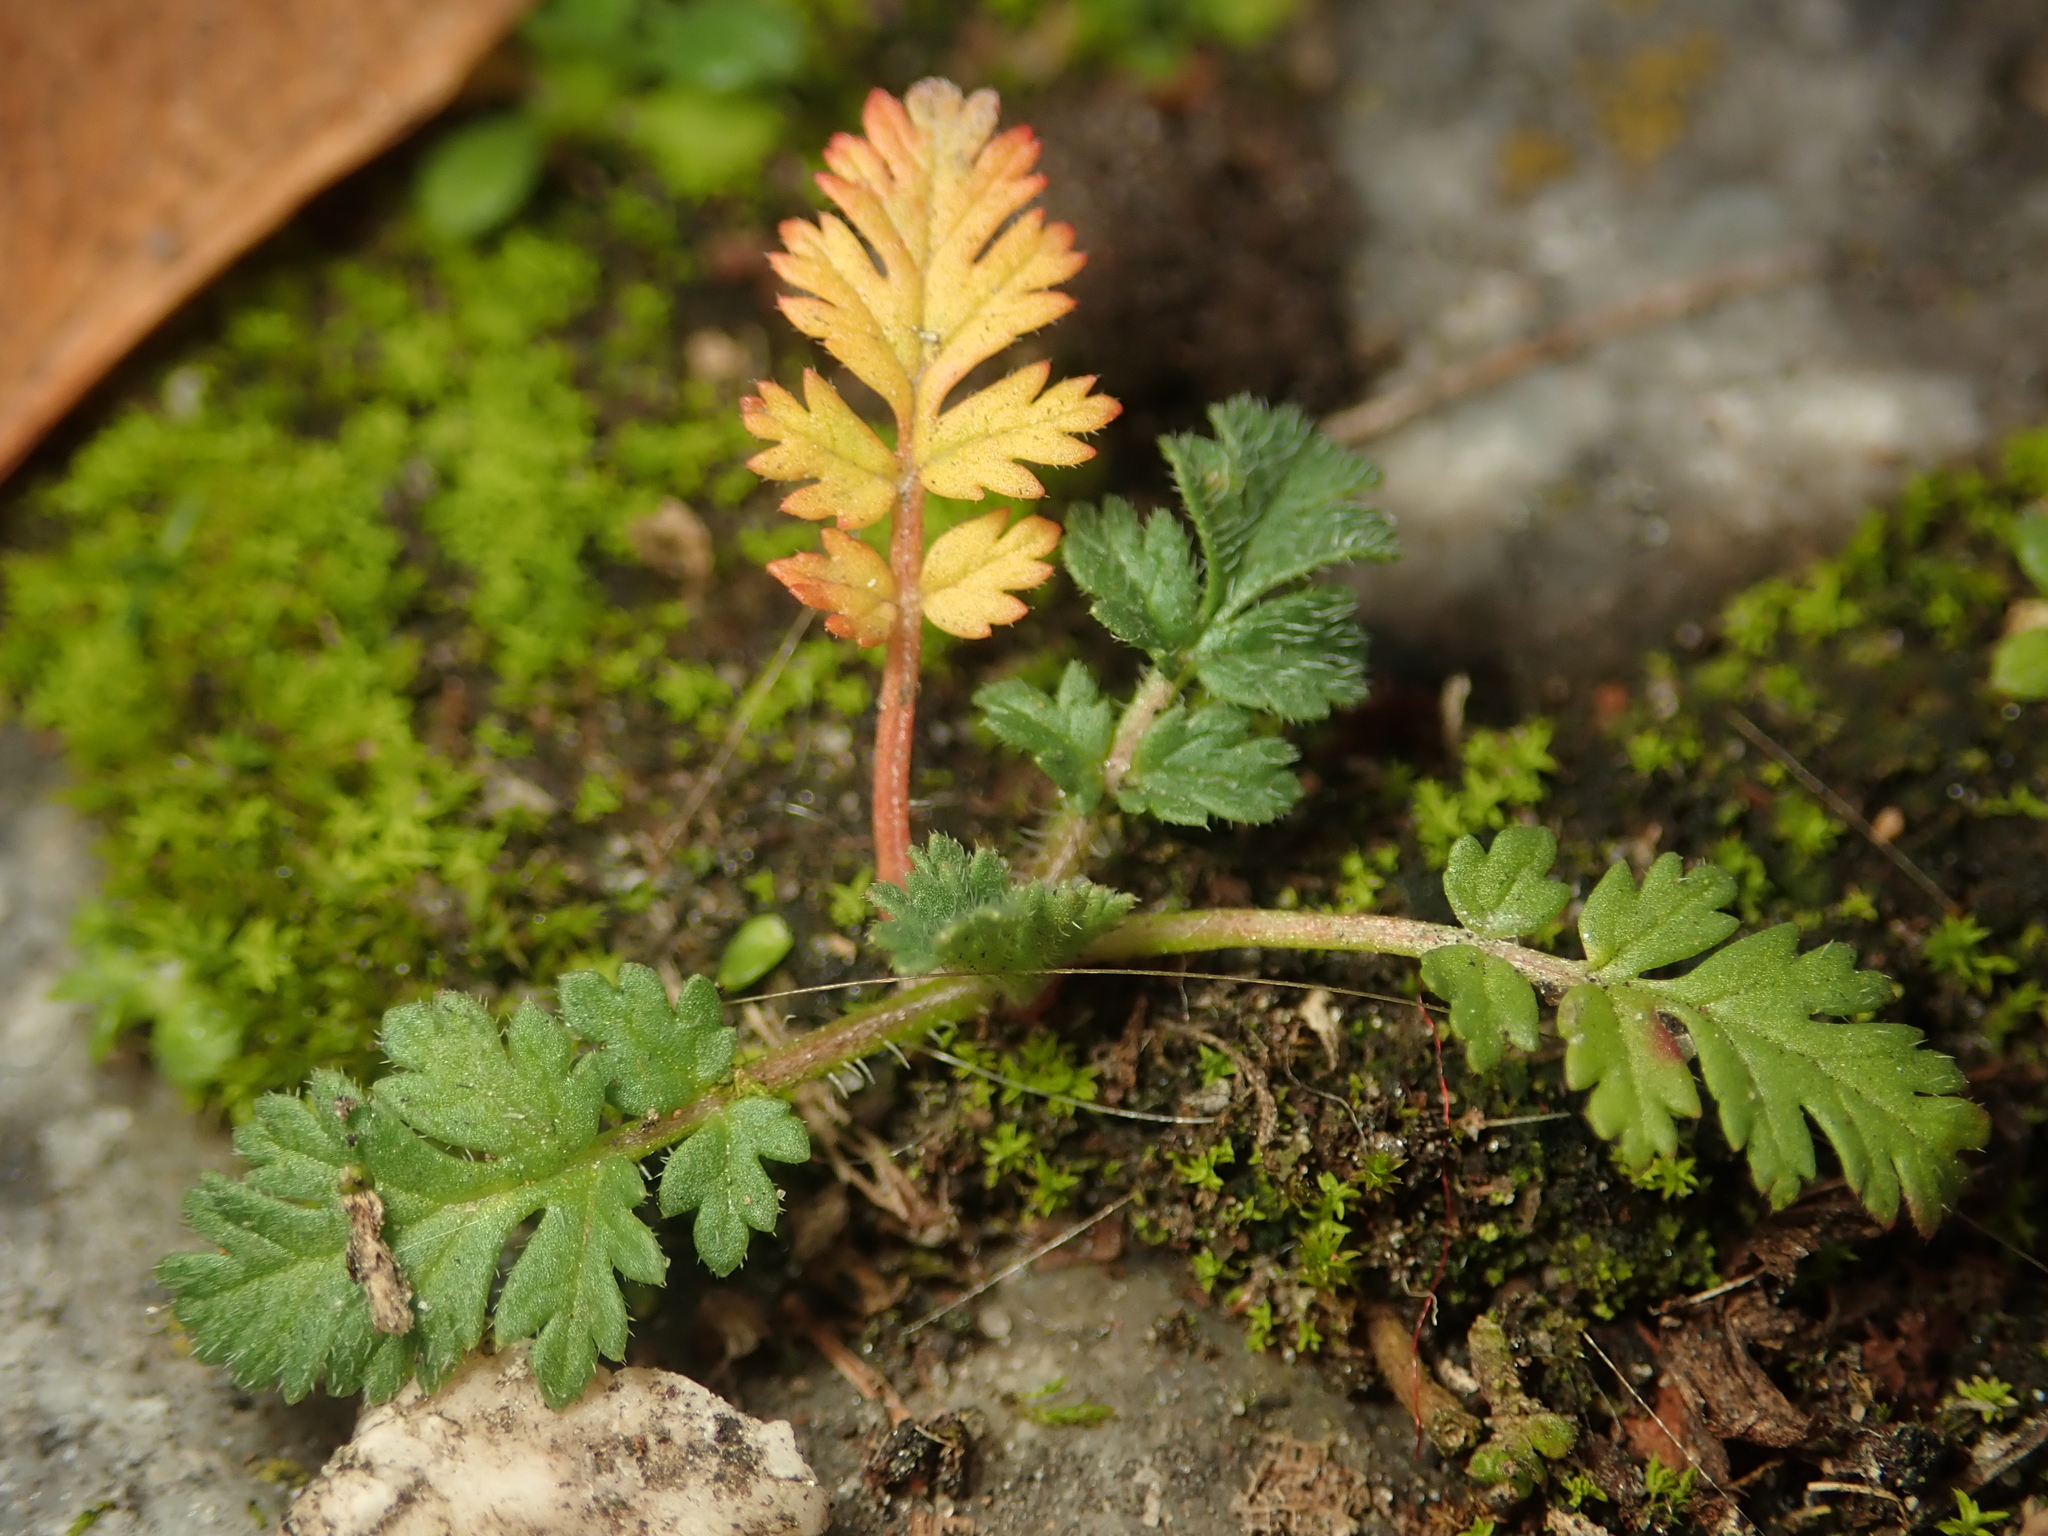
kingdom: Plantae
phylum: Tracheophyta
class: Magnoliopsida
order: Geraniales
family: Geraniaceae
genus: Erodium
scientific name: Erodium cicutarium
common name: Common stork's-bill
